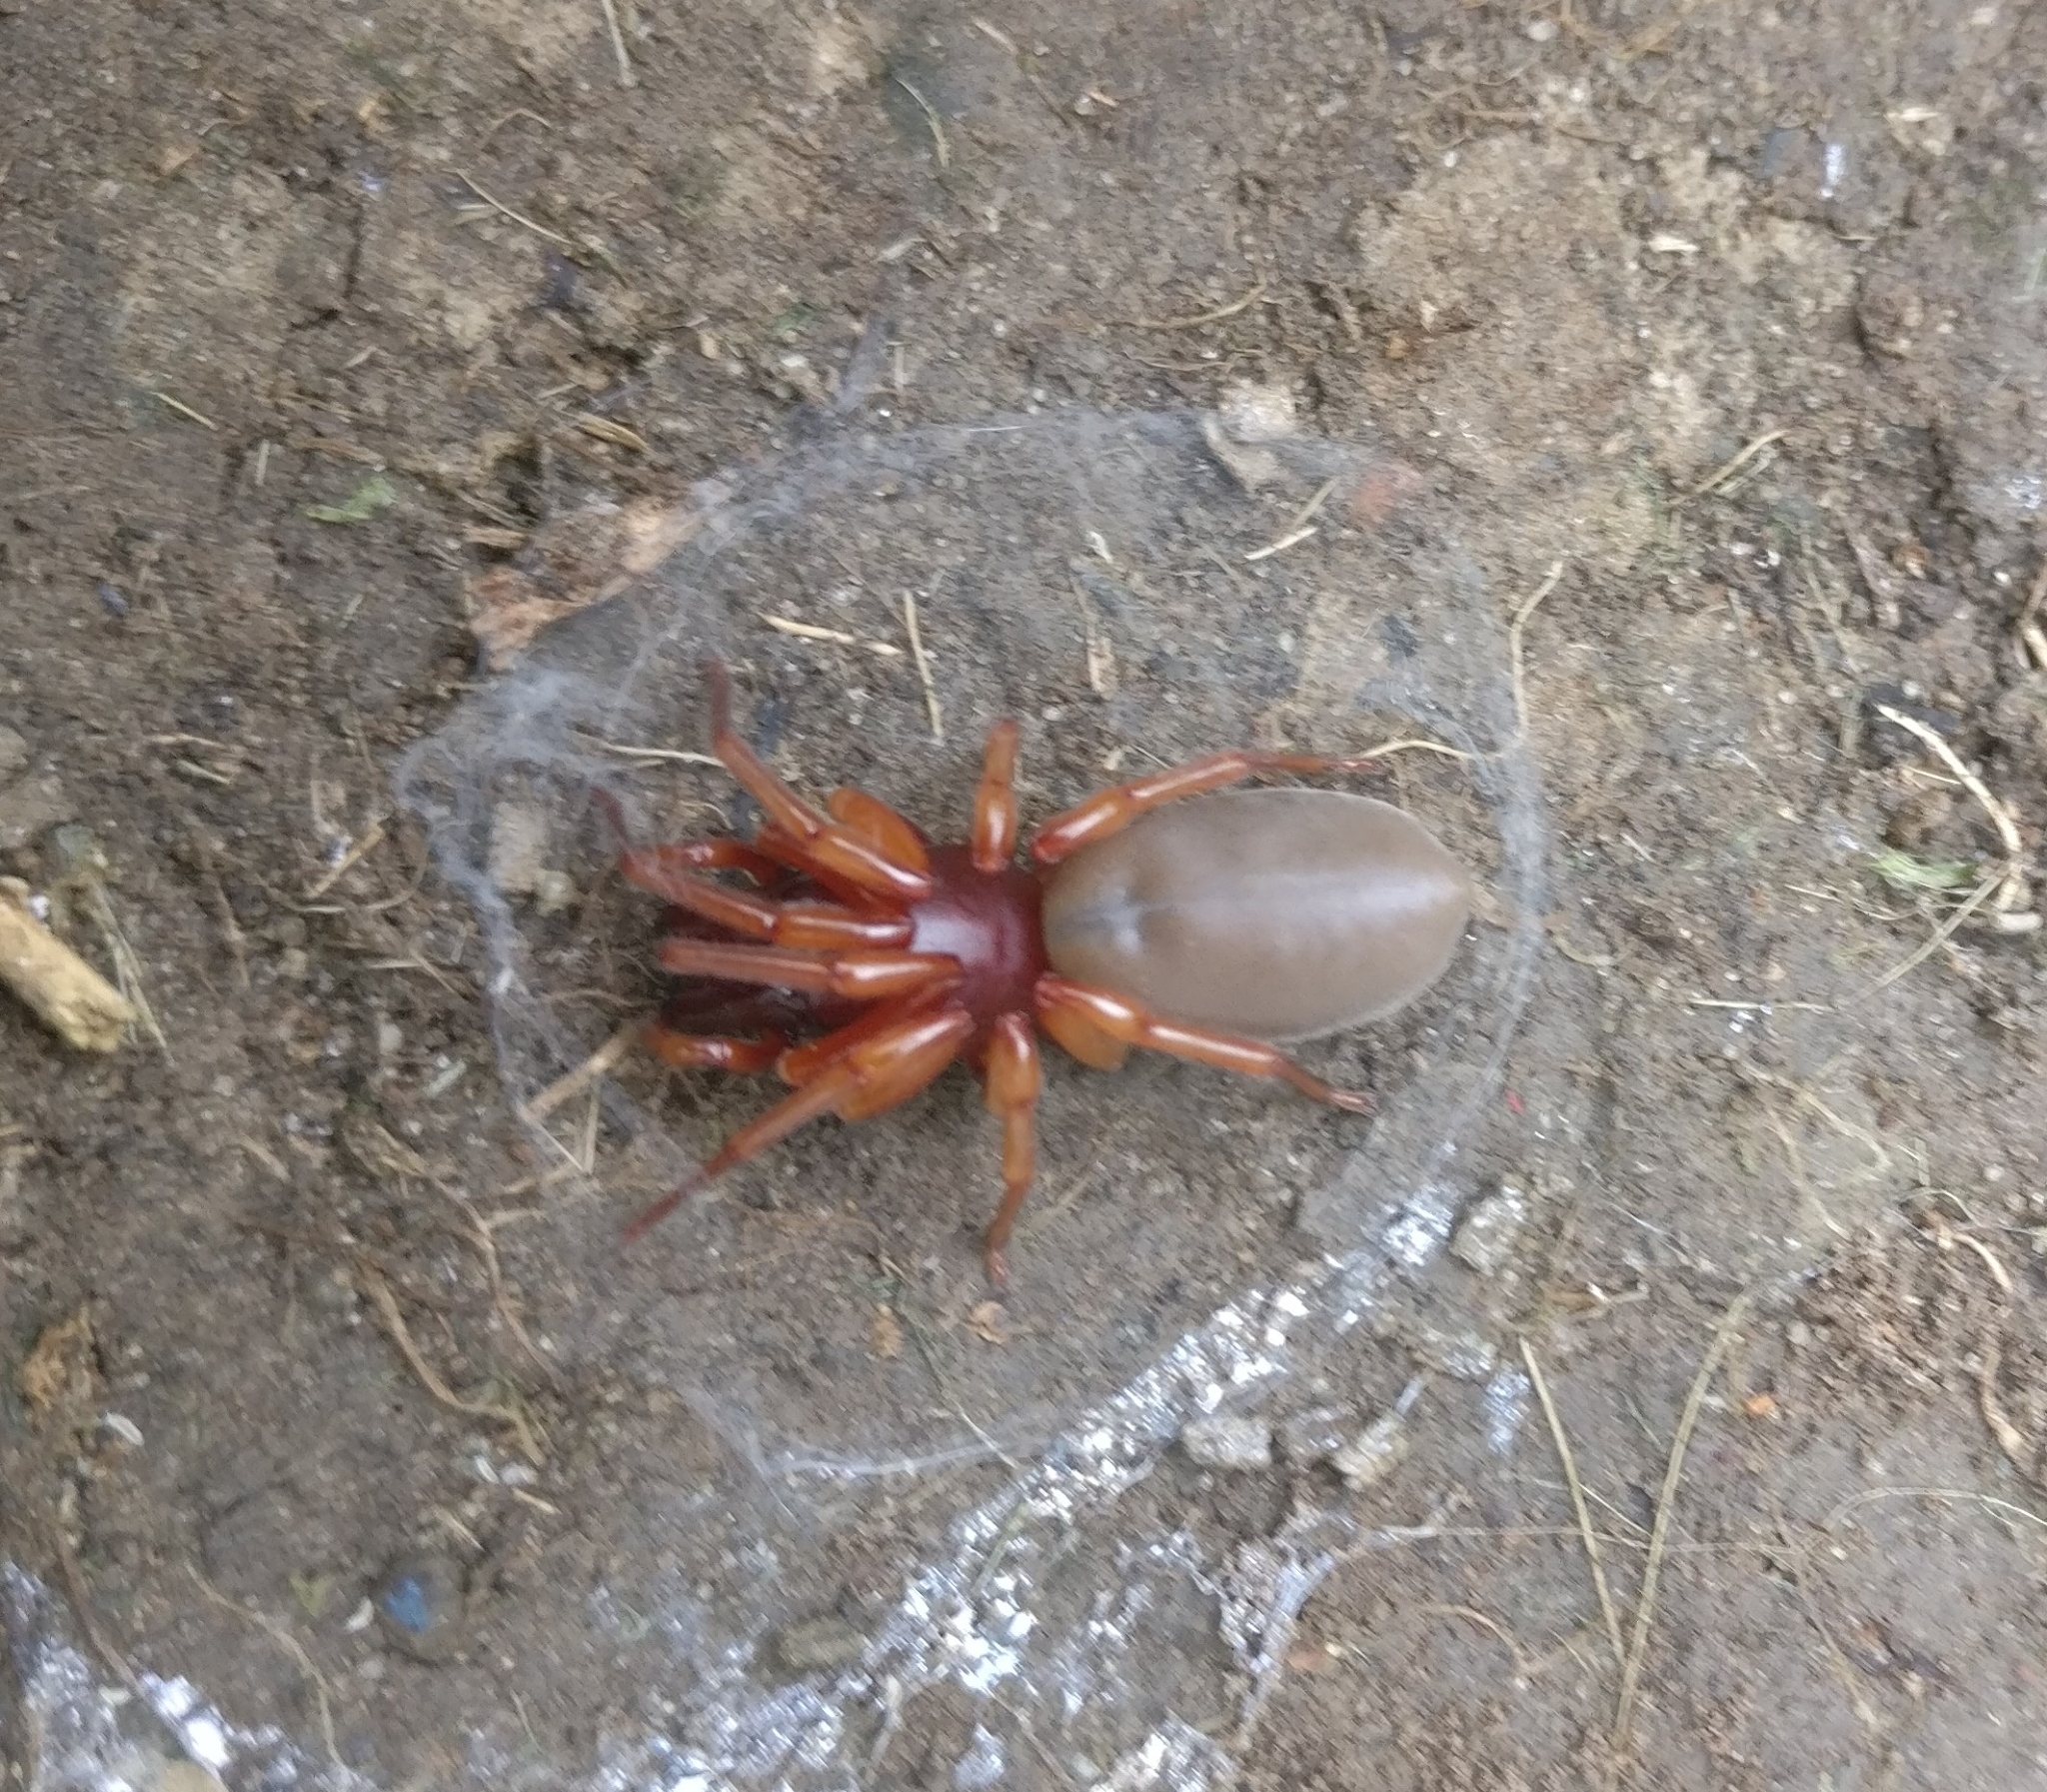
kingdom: Animalia
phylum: Arthropoda
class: Arachnida
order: Araneae
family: Dysderidae
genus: Dysdera
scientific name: Dysdera crocata
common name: Woodlouse spider
